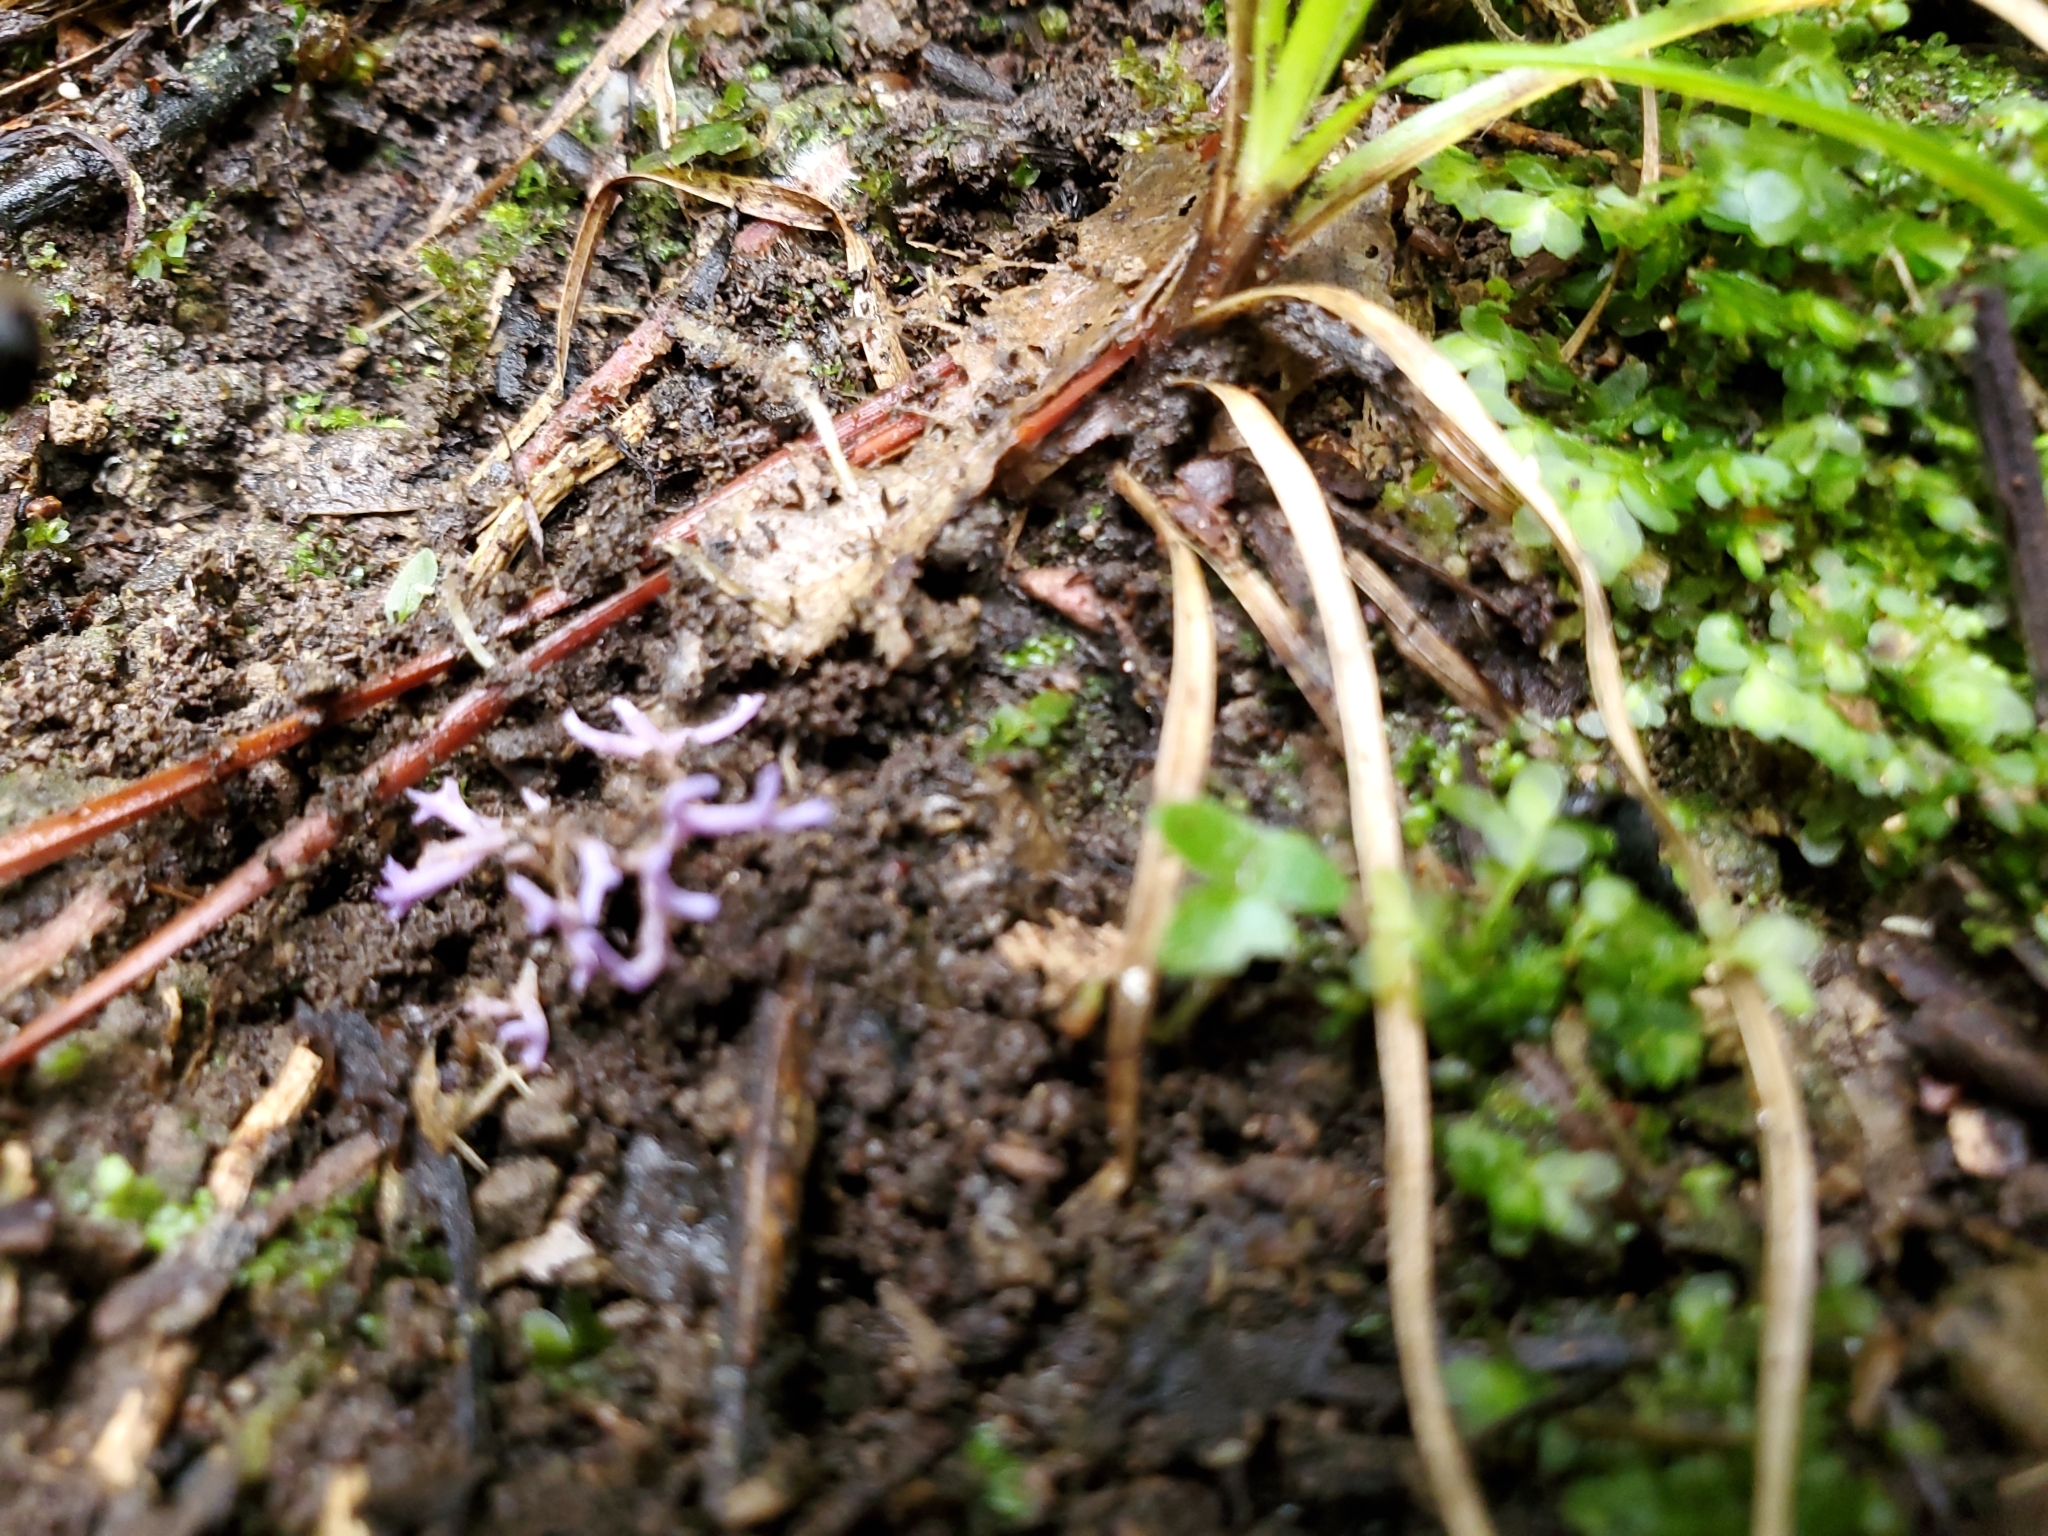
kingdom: Fungi
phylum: Basidiomycota
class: Agaricomycetes
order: Agaricales
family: Clavariaceae
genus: Ramariopsis
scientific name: Ramariopsis pulchella
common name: Lilac coral
